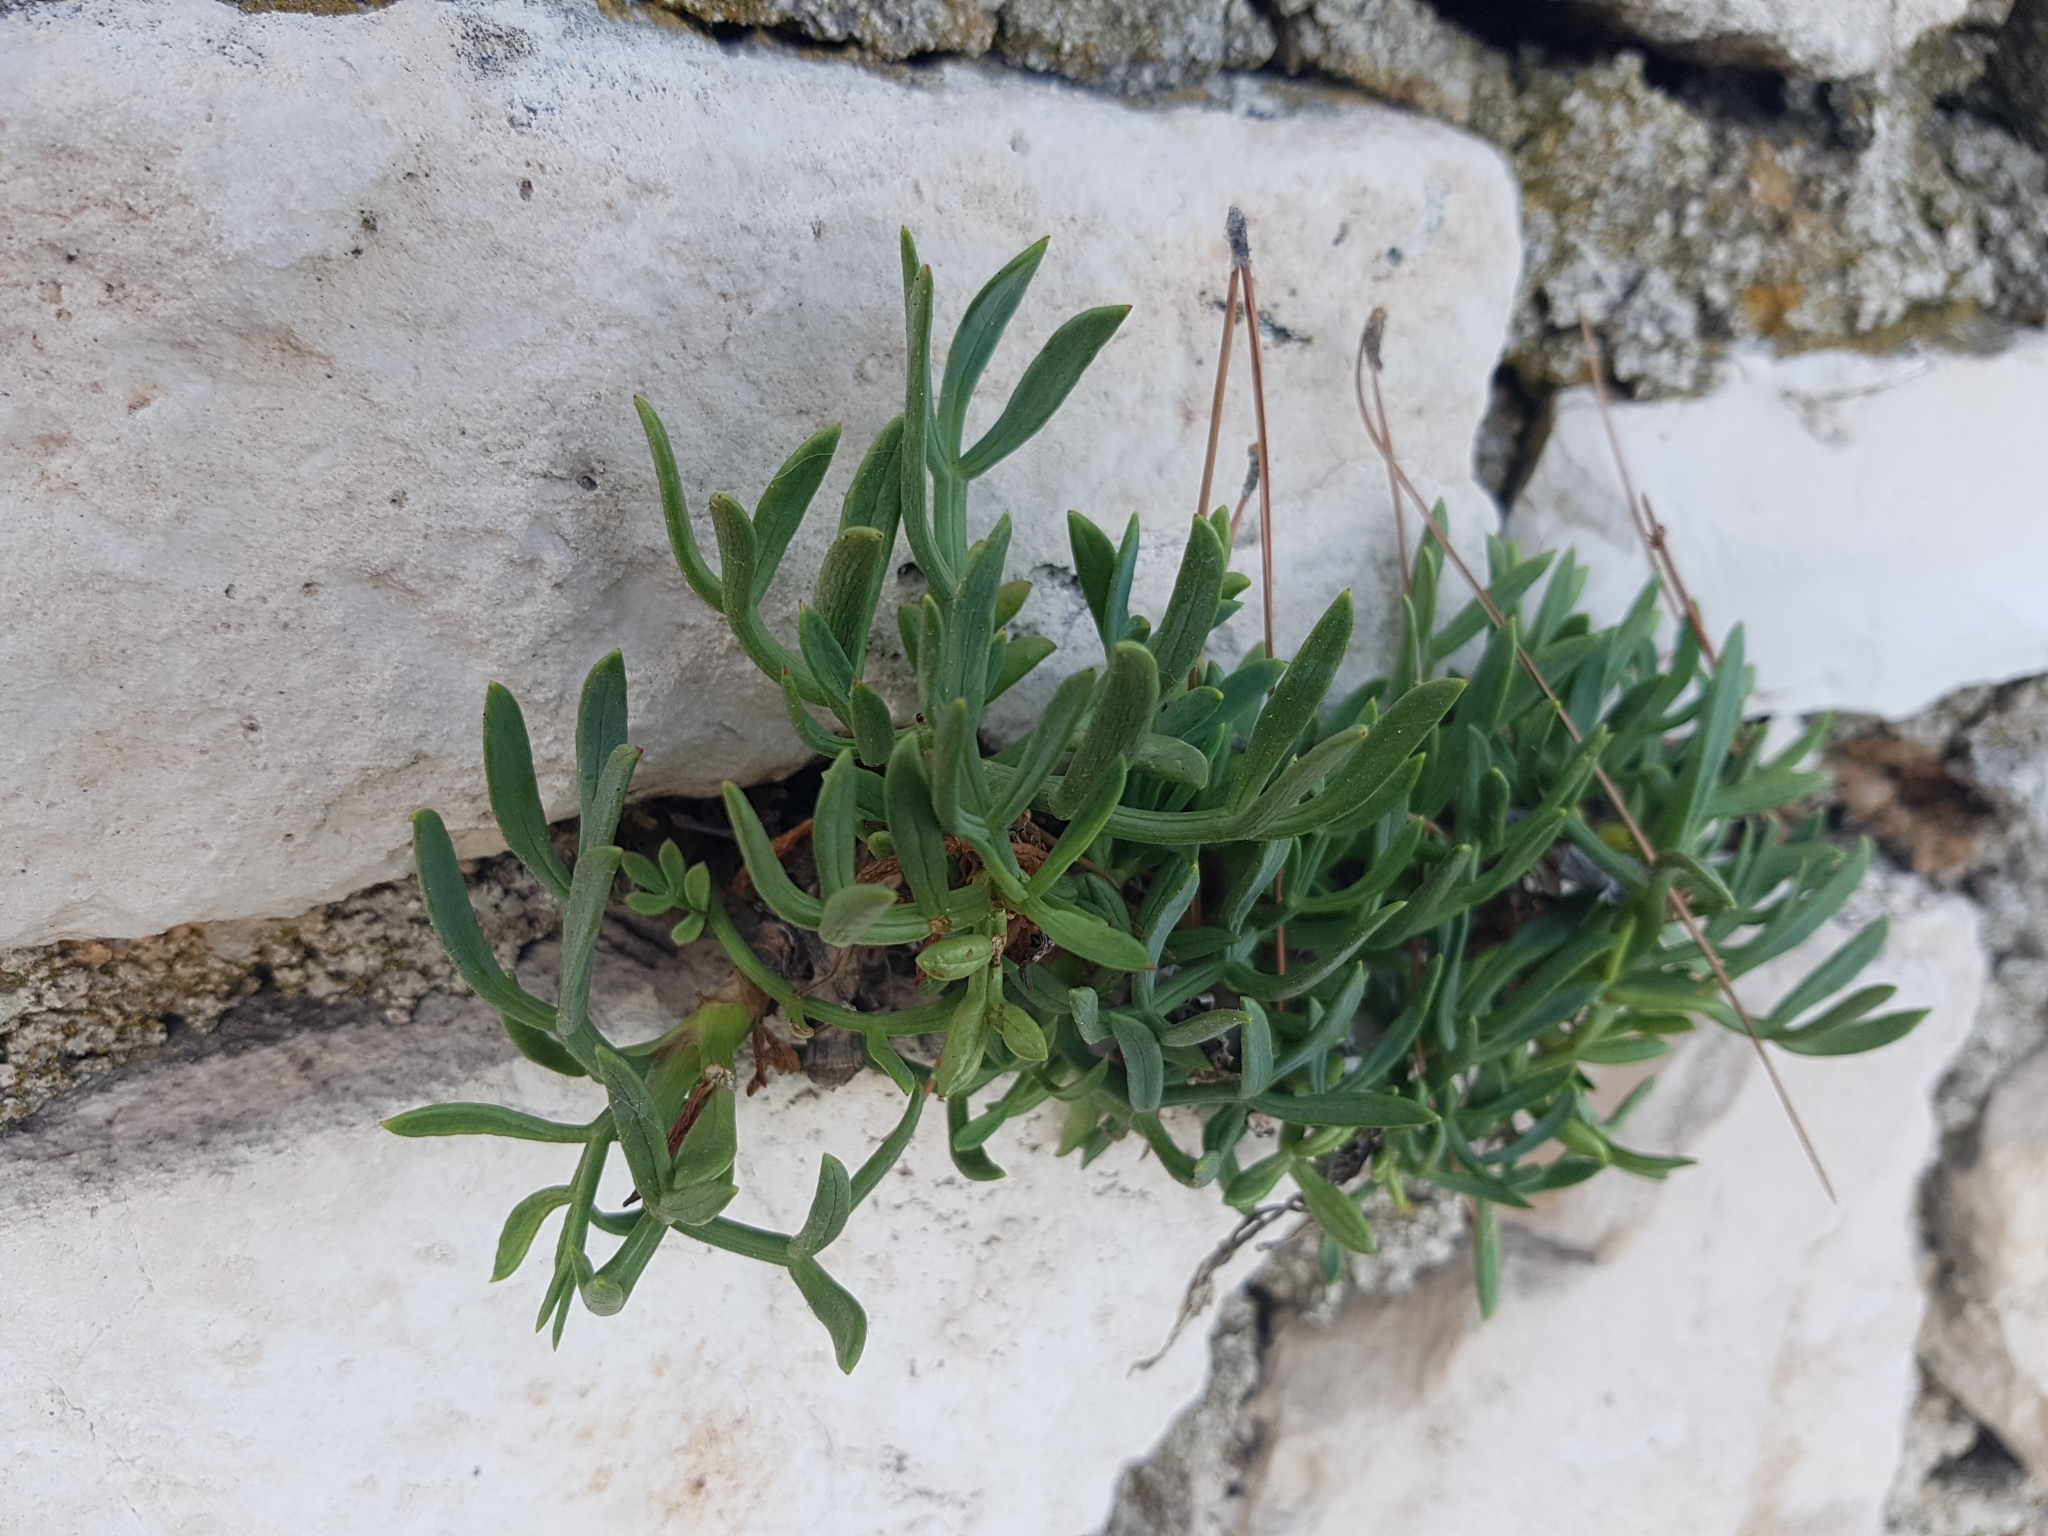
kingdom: Plantae
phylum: Tracheophyta
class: Magnoliopsida
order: Apiales
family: Apiaceae
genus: Crithmum
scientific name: Crithmum maritimum
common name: Rock samphire
